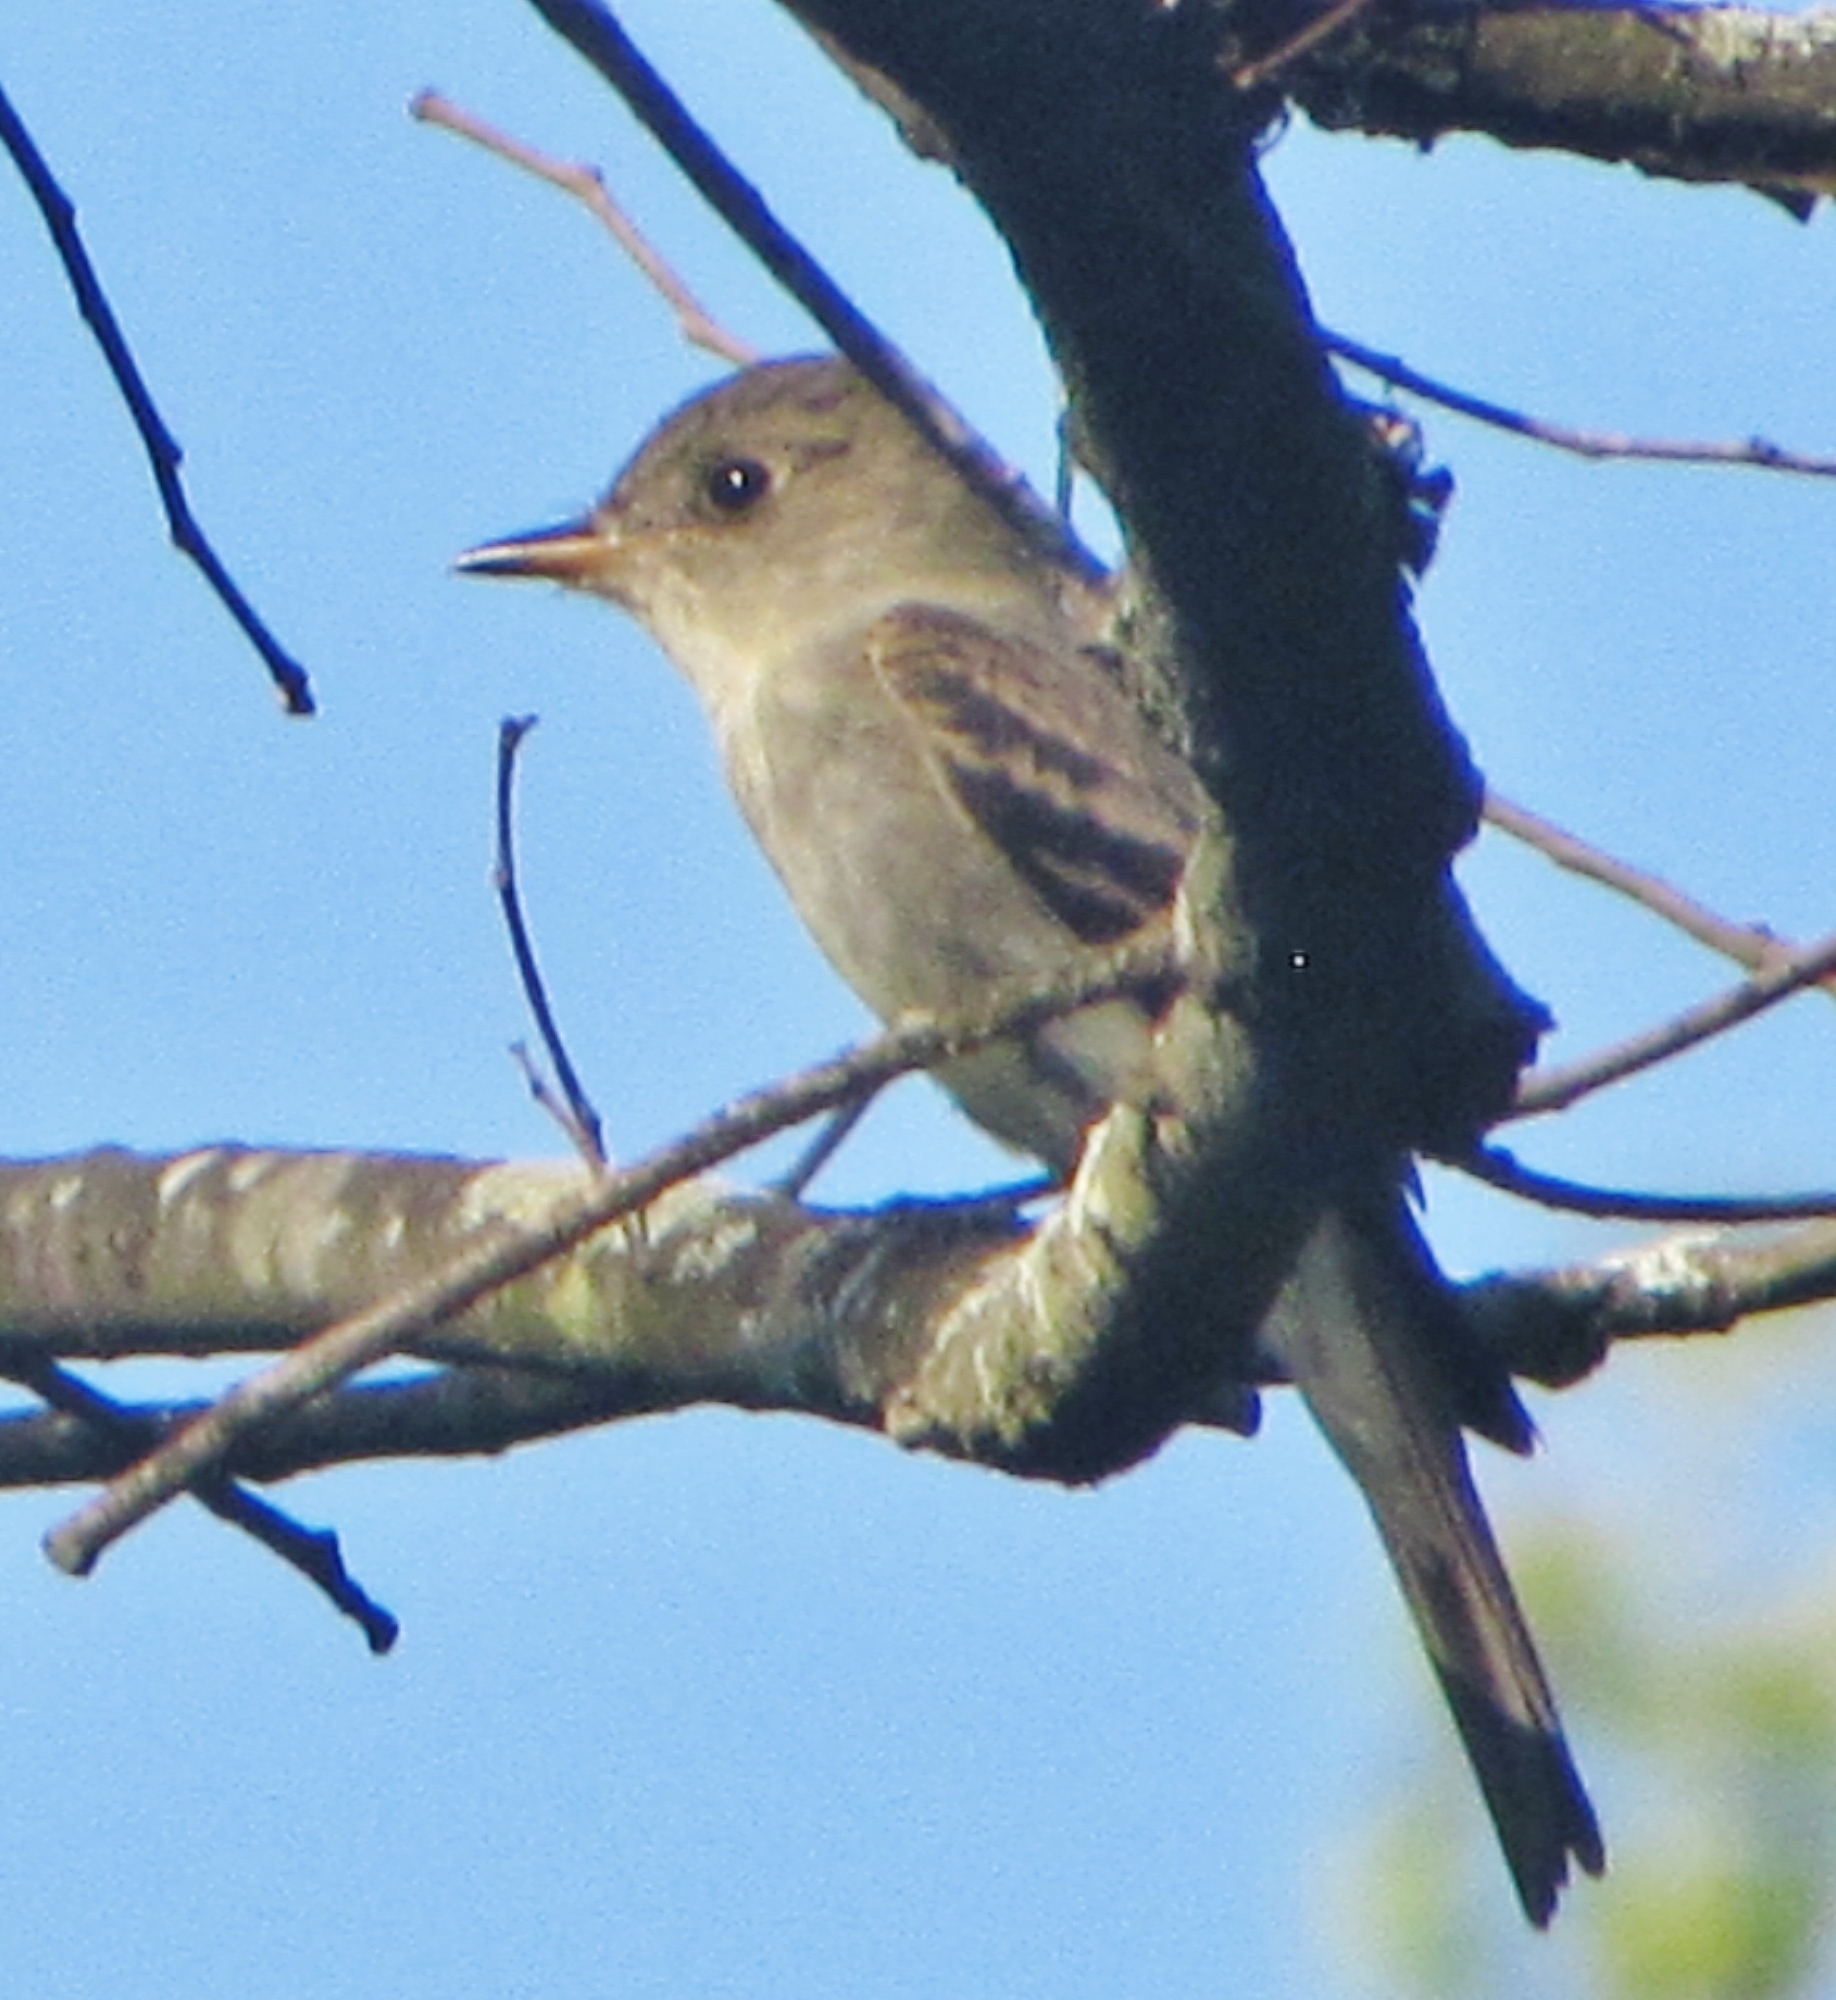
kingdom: Animalia
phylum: Chordata
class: Aves
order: Passeriformes
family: Tyrannidae
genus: Contopus
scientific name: Contopus virens
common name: Eastern wood-pewee
